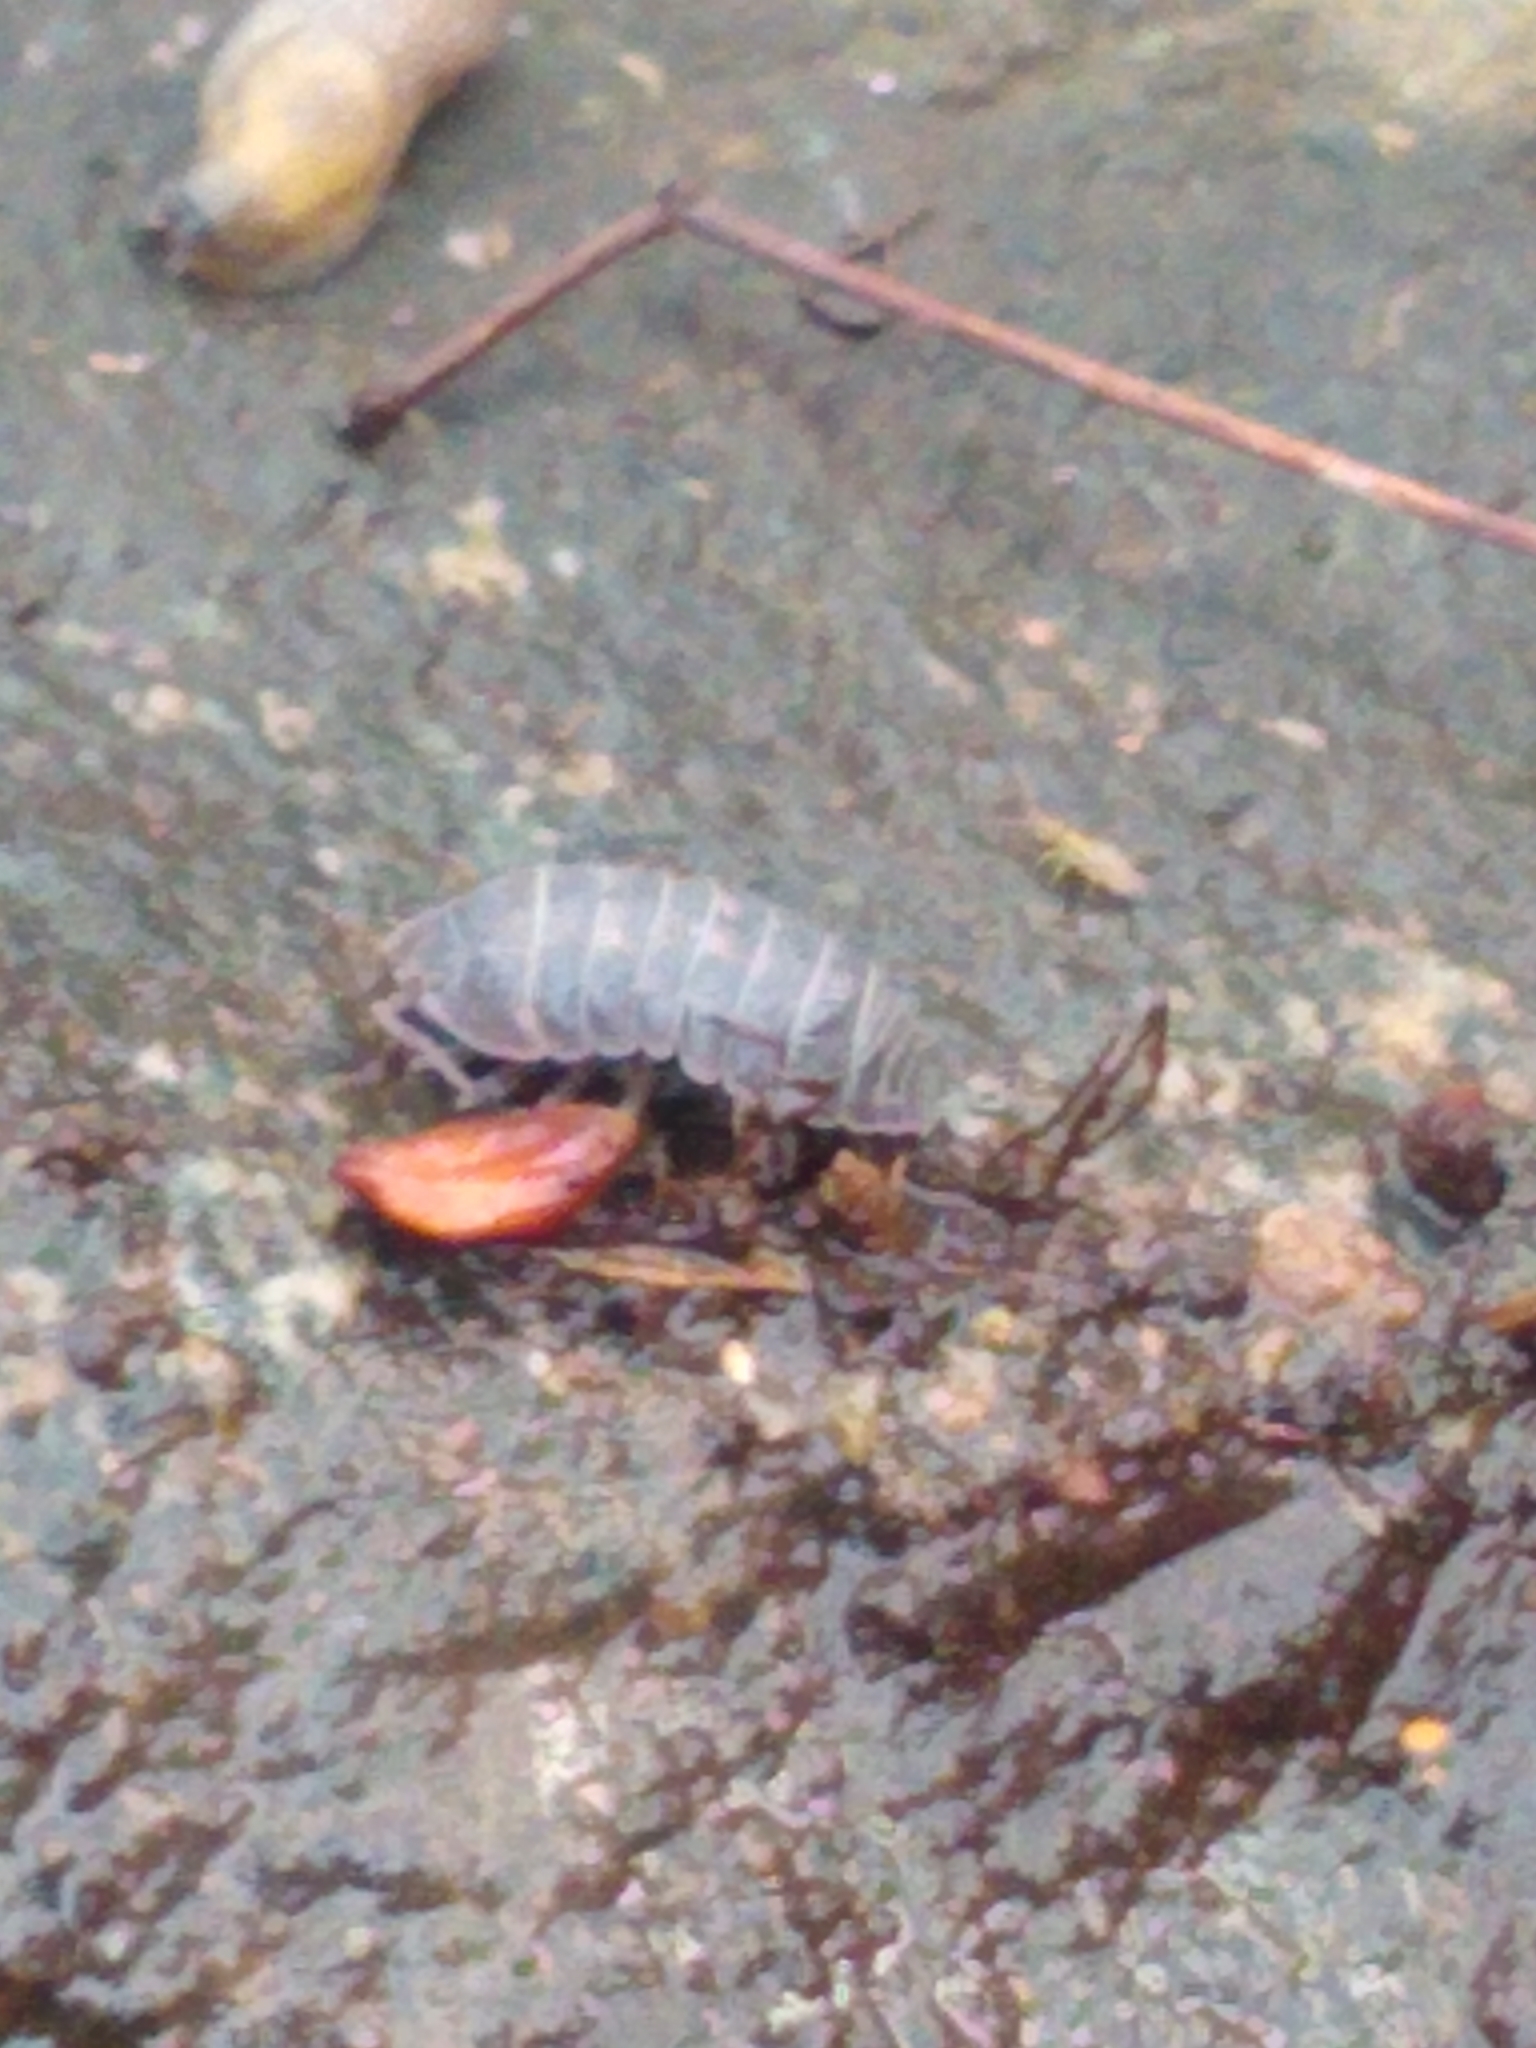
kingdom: Animalia
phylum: Arthropoda
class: Malacostraca
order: Isopoda
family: Armadillidiidae
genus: Armadillidium
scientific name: Armadillidium vulgare
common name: Common pill woodlouse
